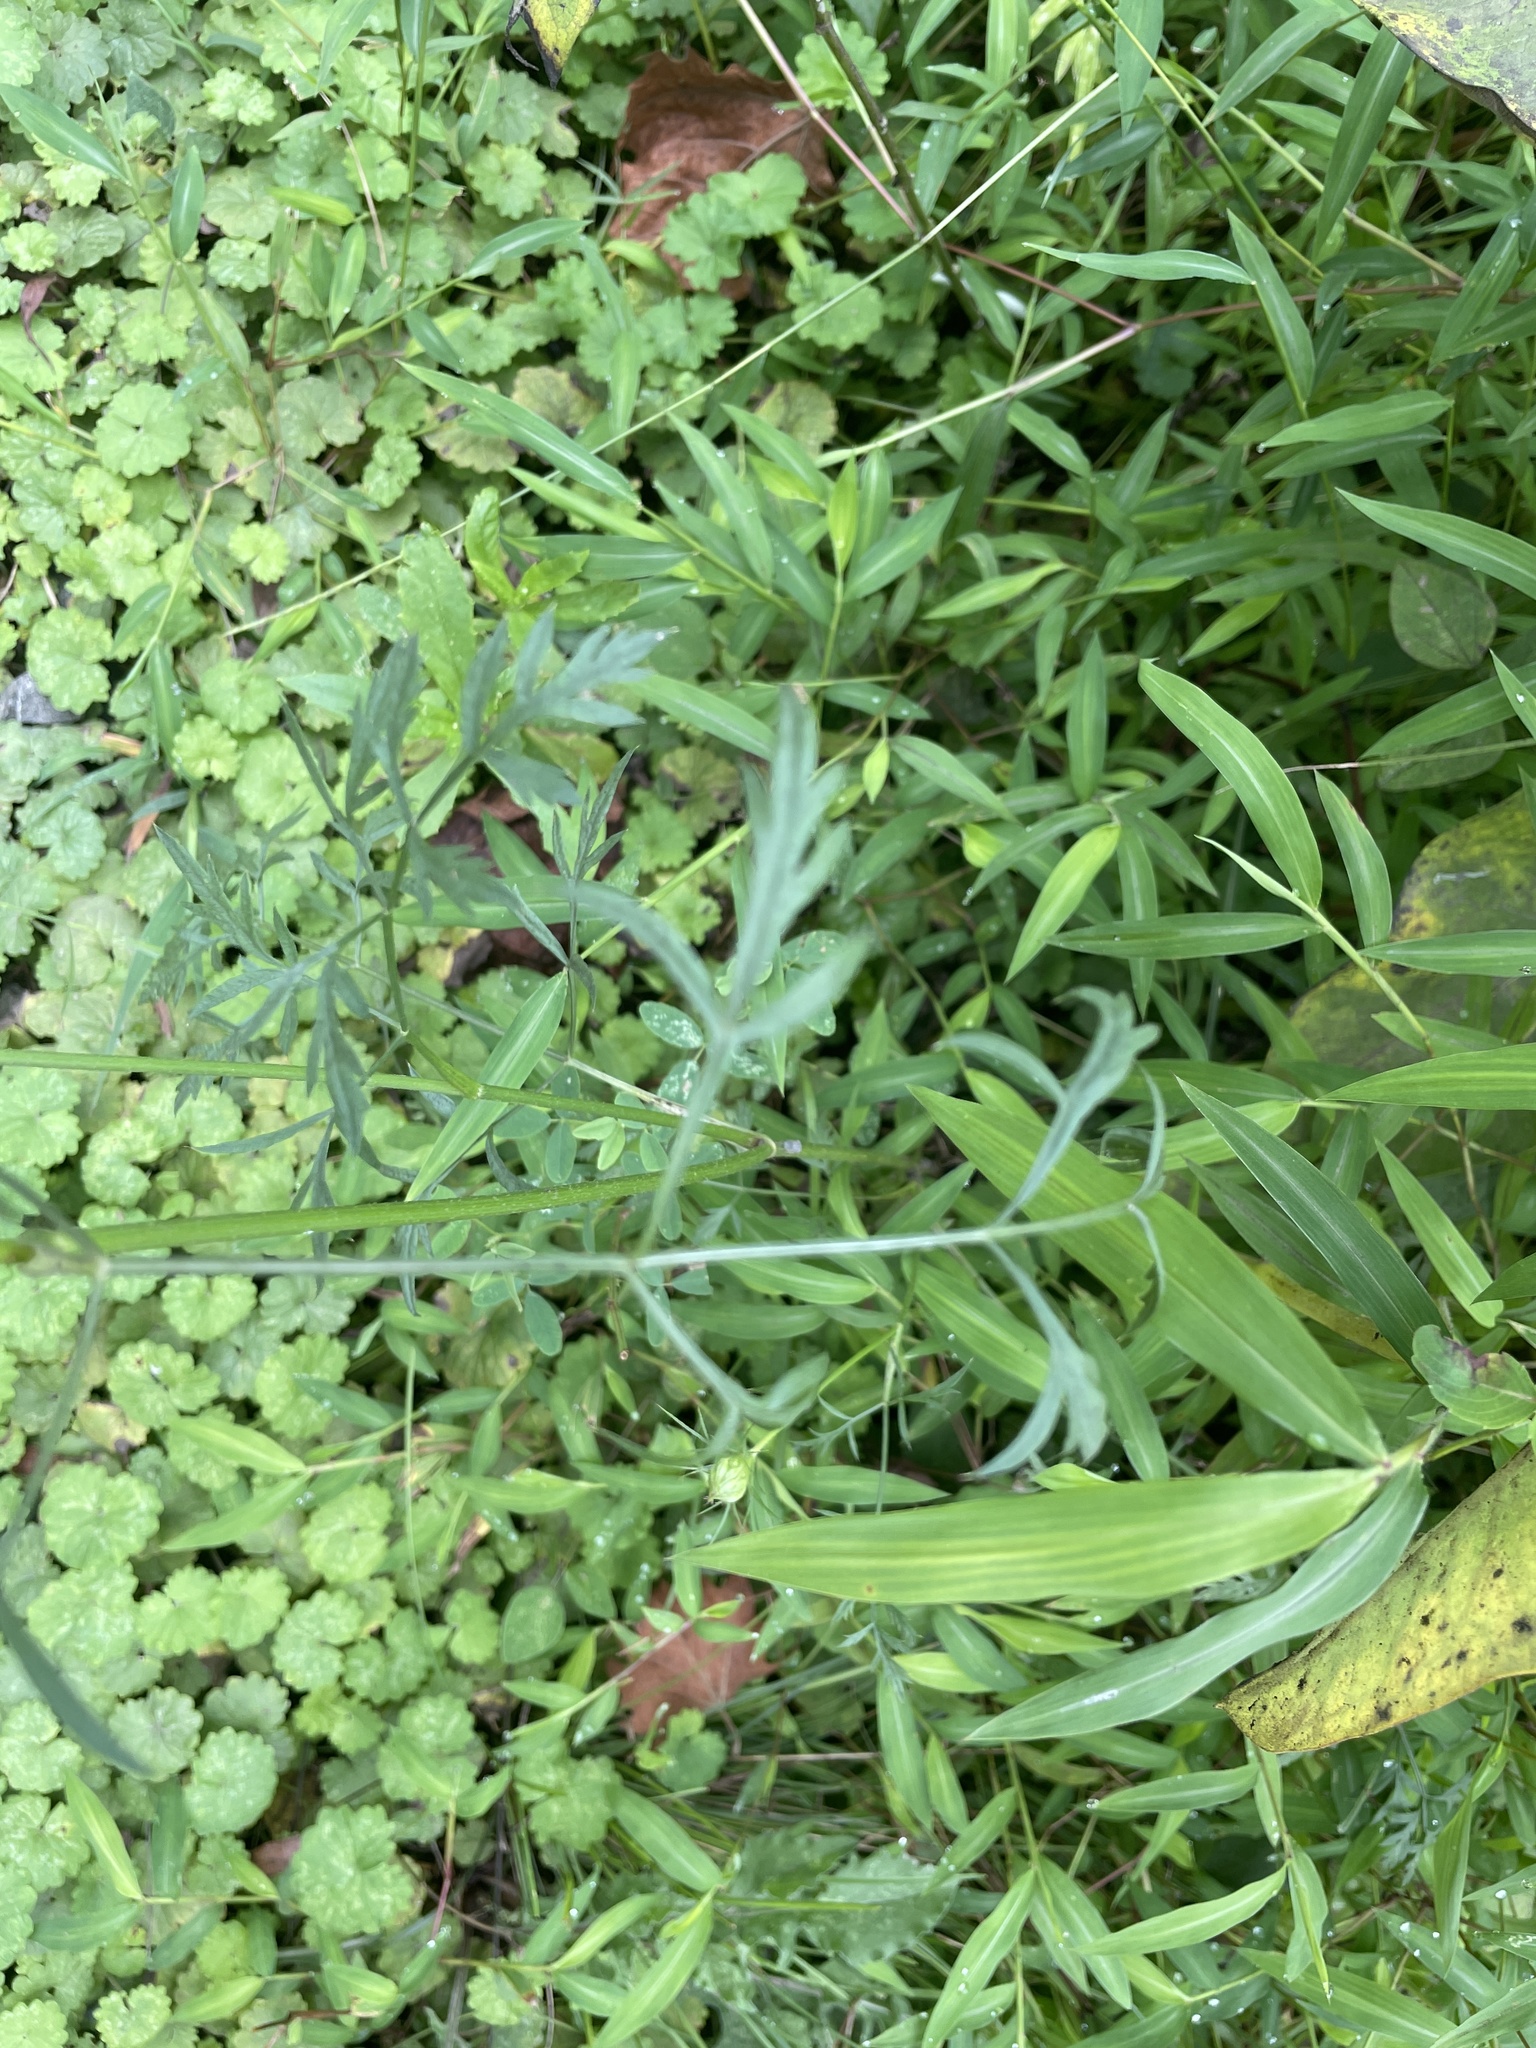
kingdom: Plantae
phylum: Tracheophyta
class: Magnoliopsida
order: Apiales
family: Apiaceae
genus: Daucus
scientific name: Daucus carota
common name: Wild carrot
